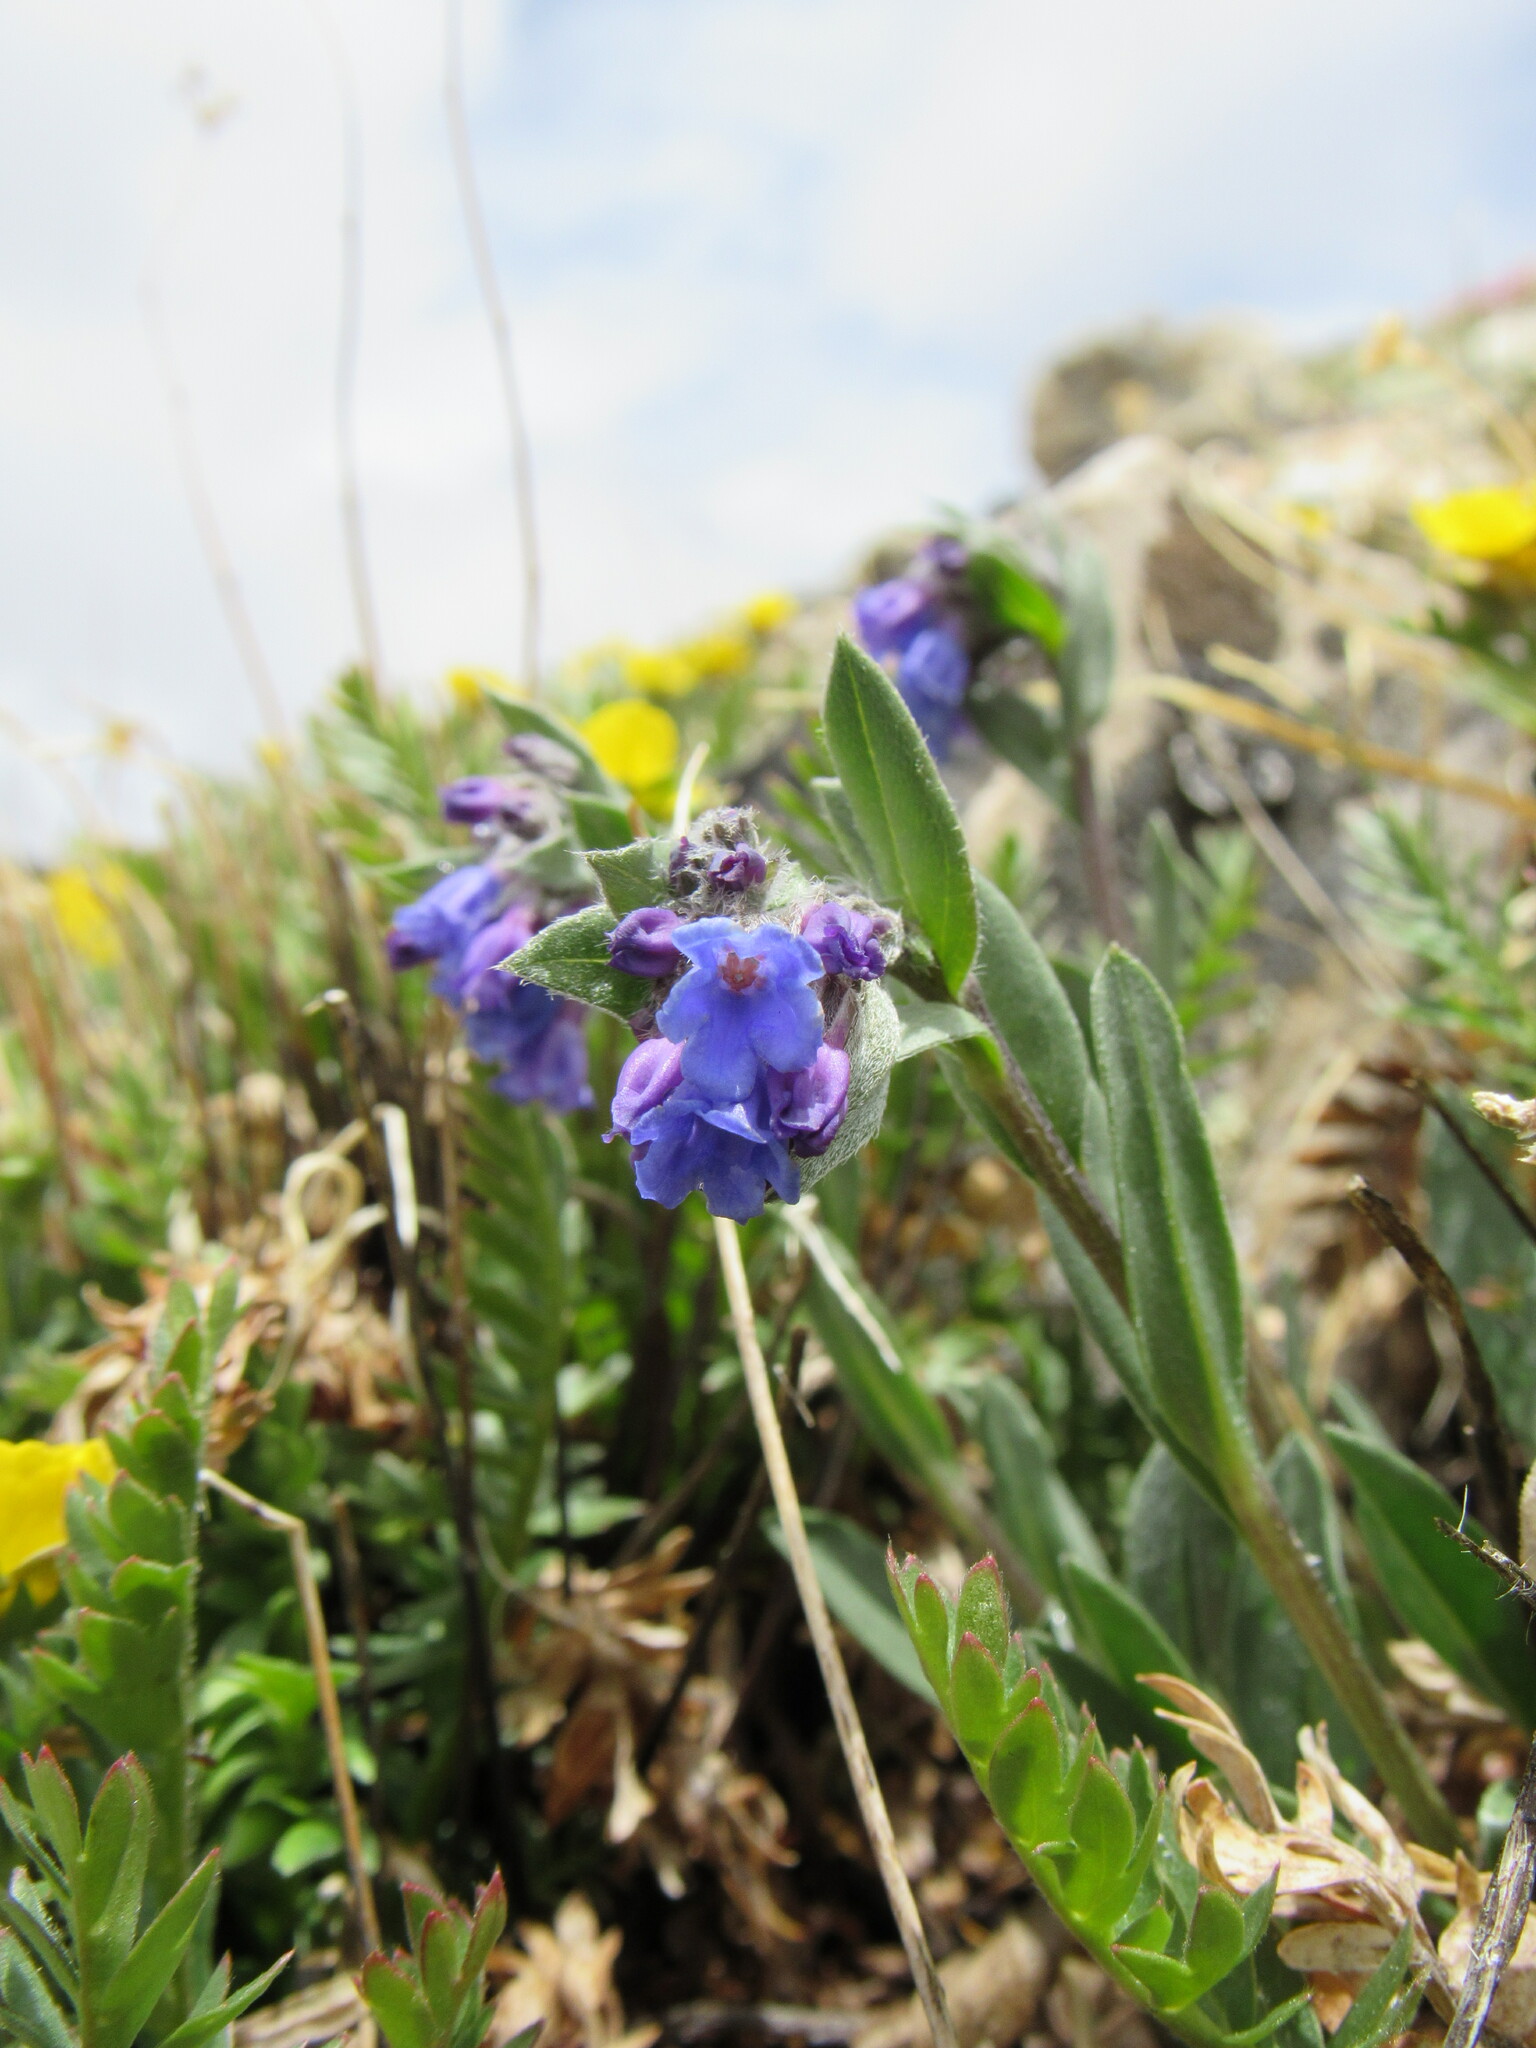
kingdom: Plantae
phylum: Tracheophyta
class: Magnoliopsida
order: Boraginales
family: Boraginaceae
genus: Mertensia
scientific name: Mertensia lanceolata
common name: Lance-leaved bluebells
